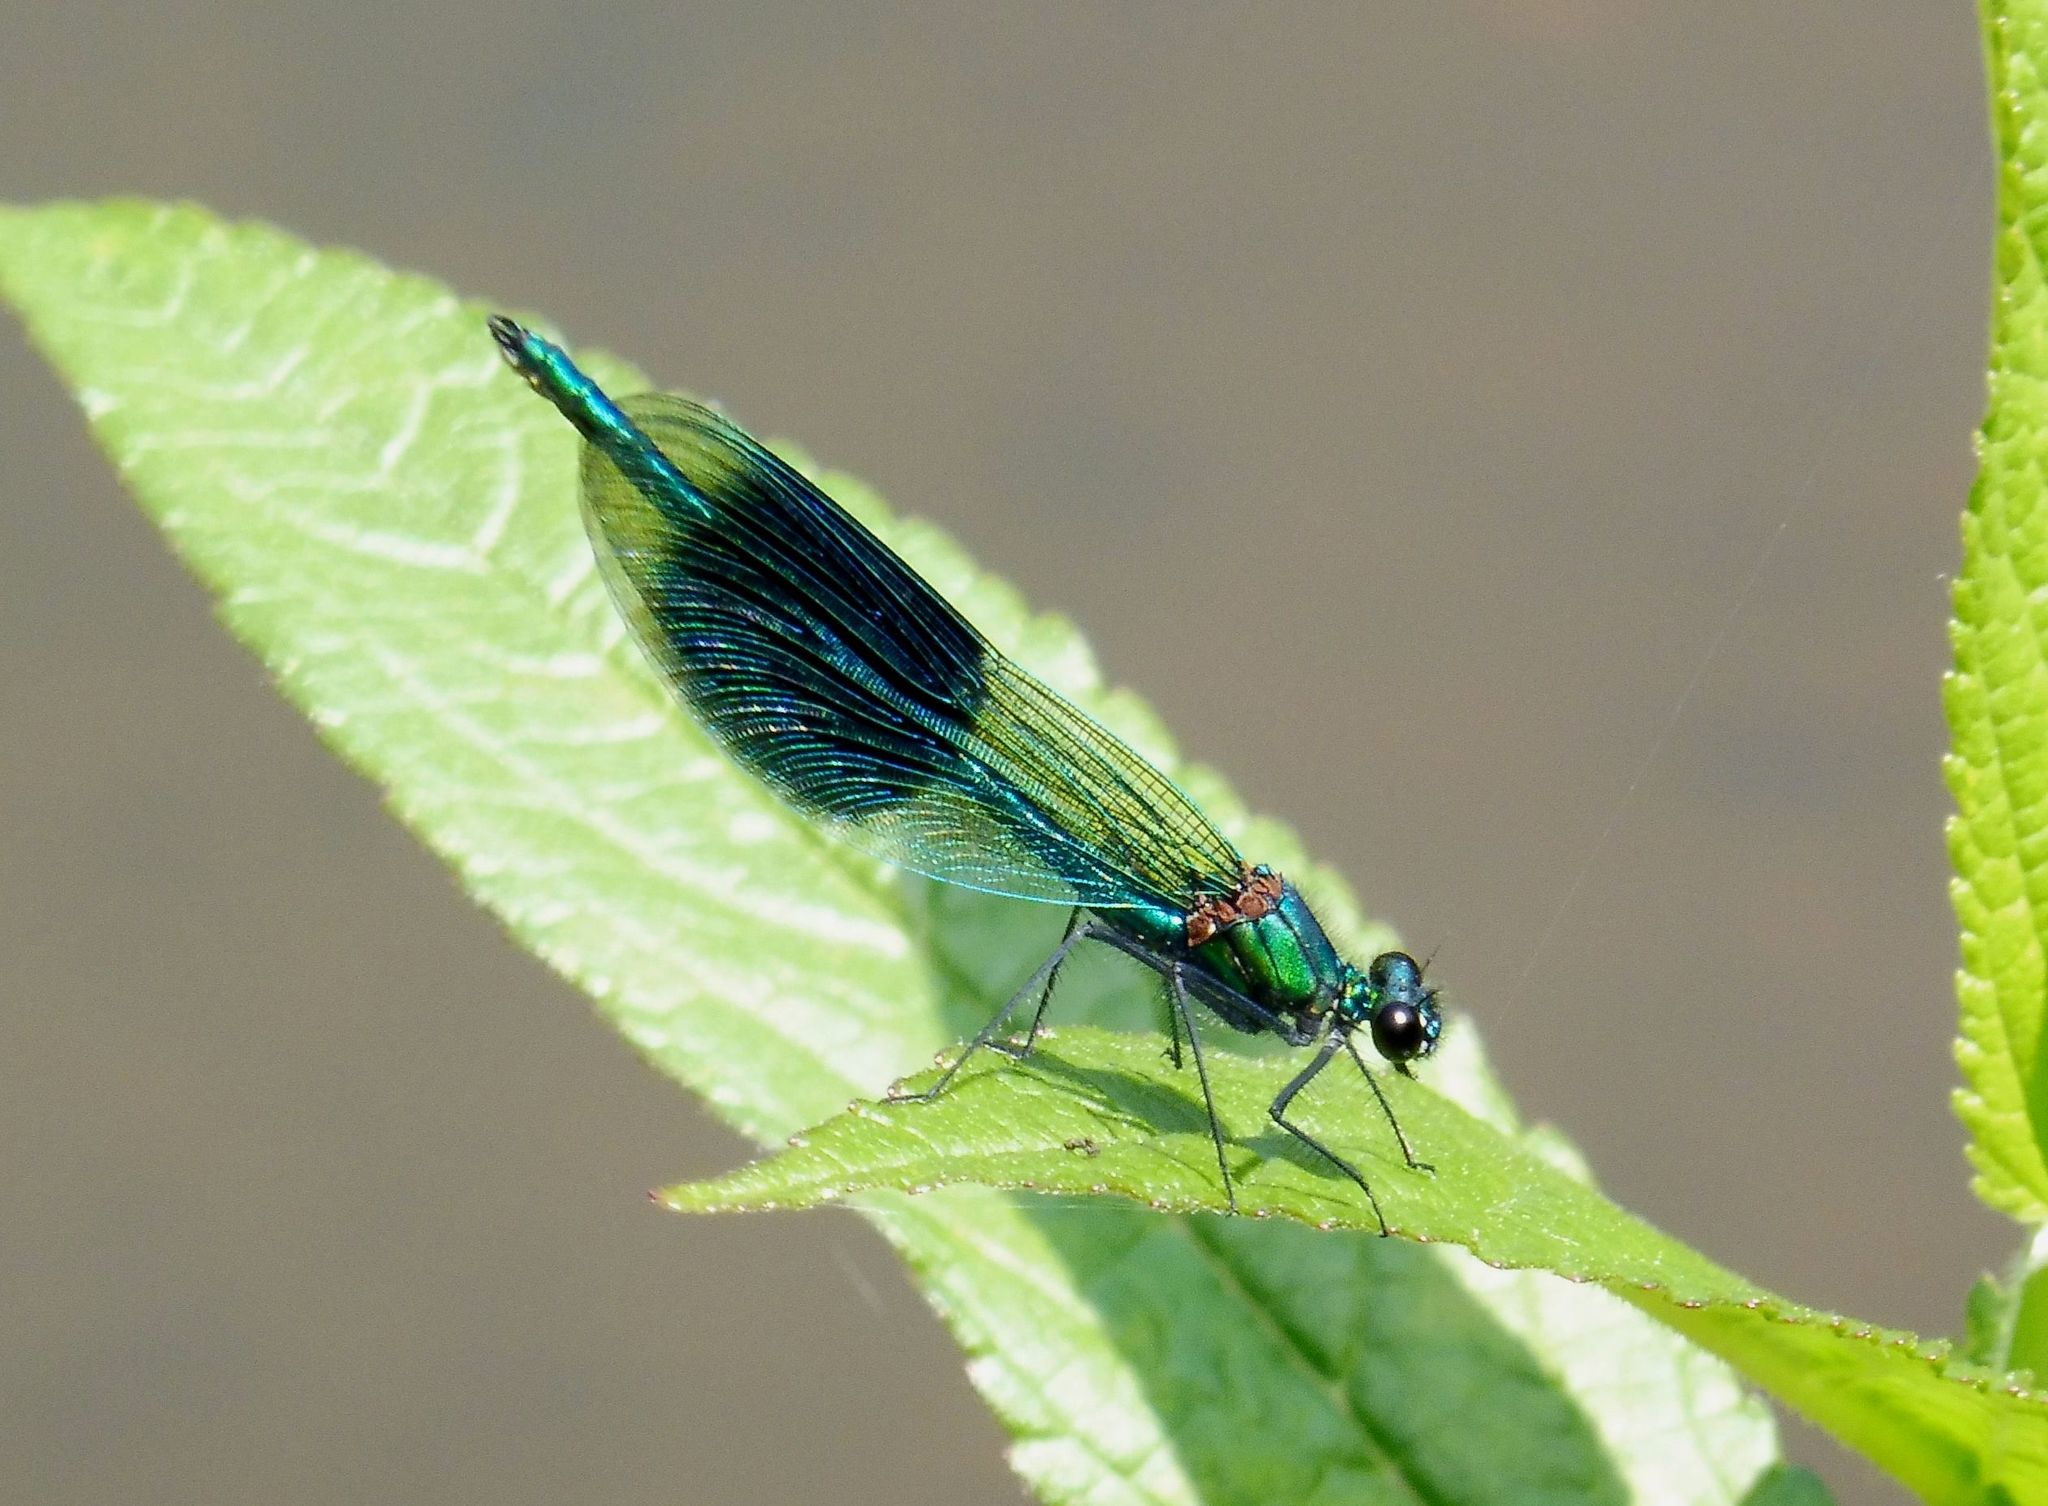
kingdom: Animalia
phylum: Arthropoda
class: Insecta
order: Odonata
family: Calopterygidae
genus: Calopteryx
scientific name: Calopteryx splendens
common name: Banded demoiselle
